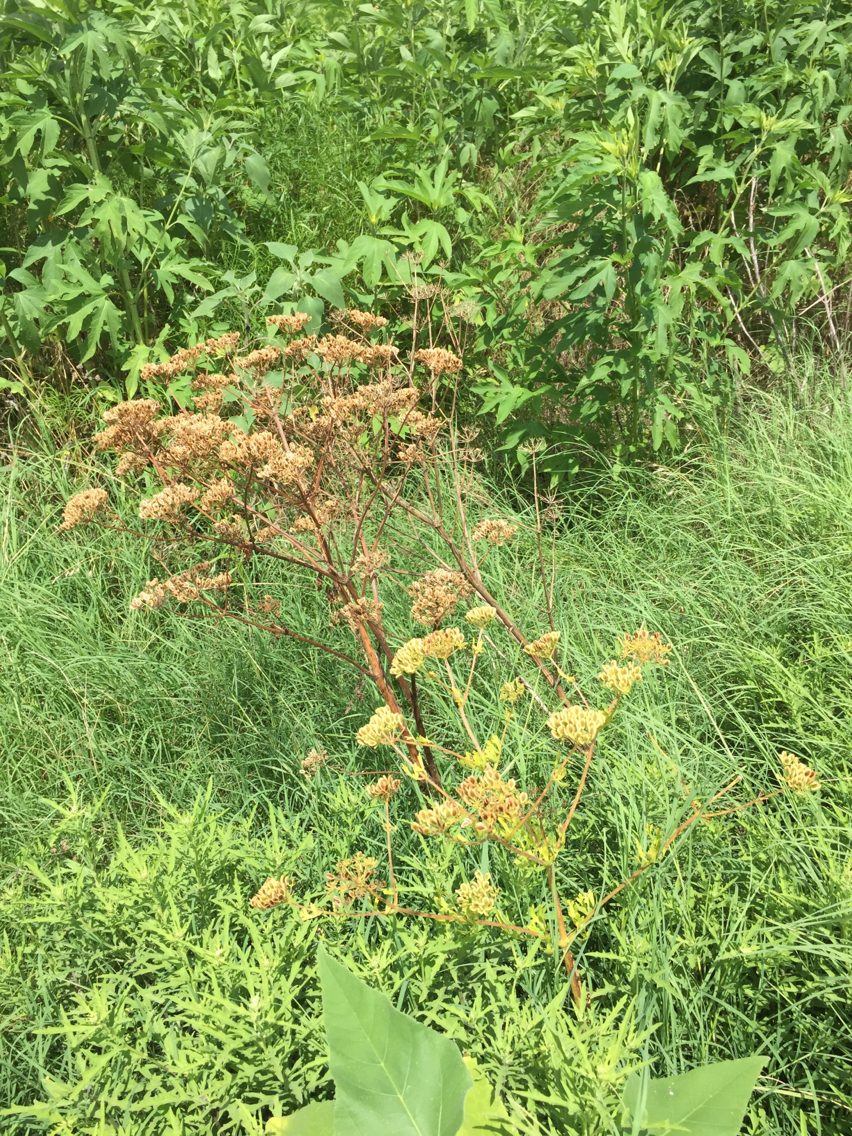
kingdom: Plantae
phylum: Tracheophyta
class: Magnoliopsida
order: Apiales
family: Apiaceae
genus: Polytaenia
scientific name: Polytaenia texana
